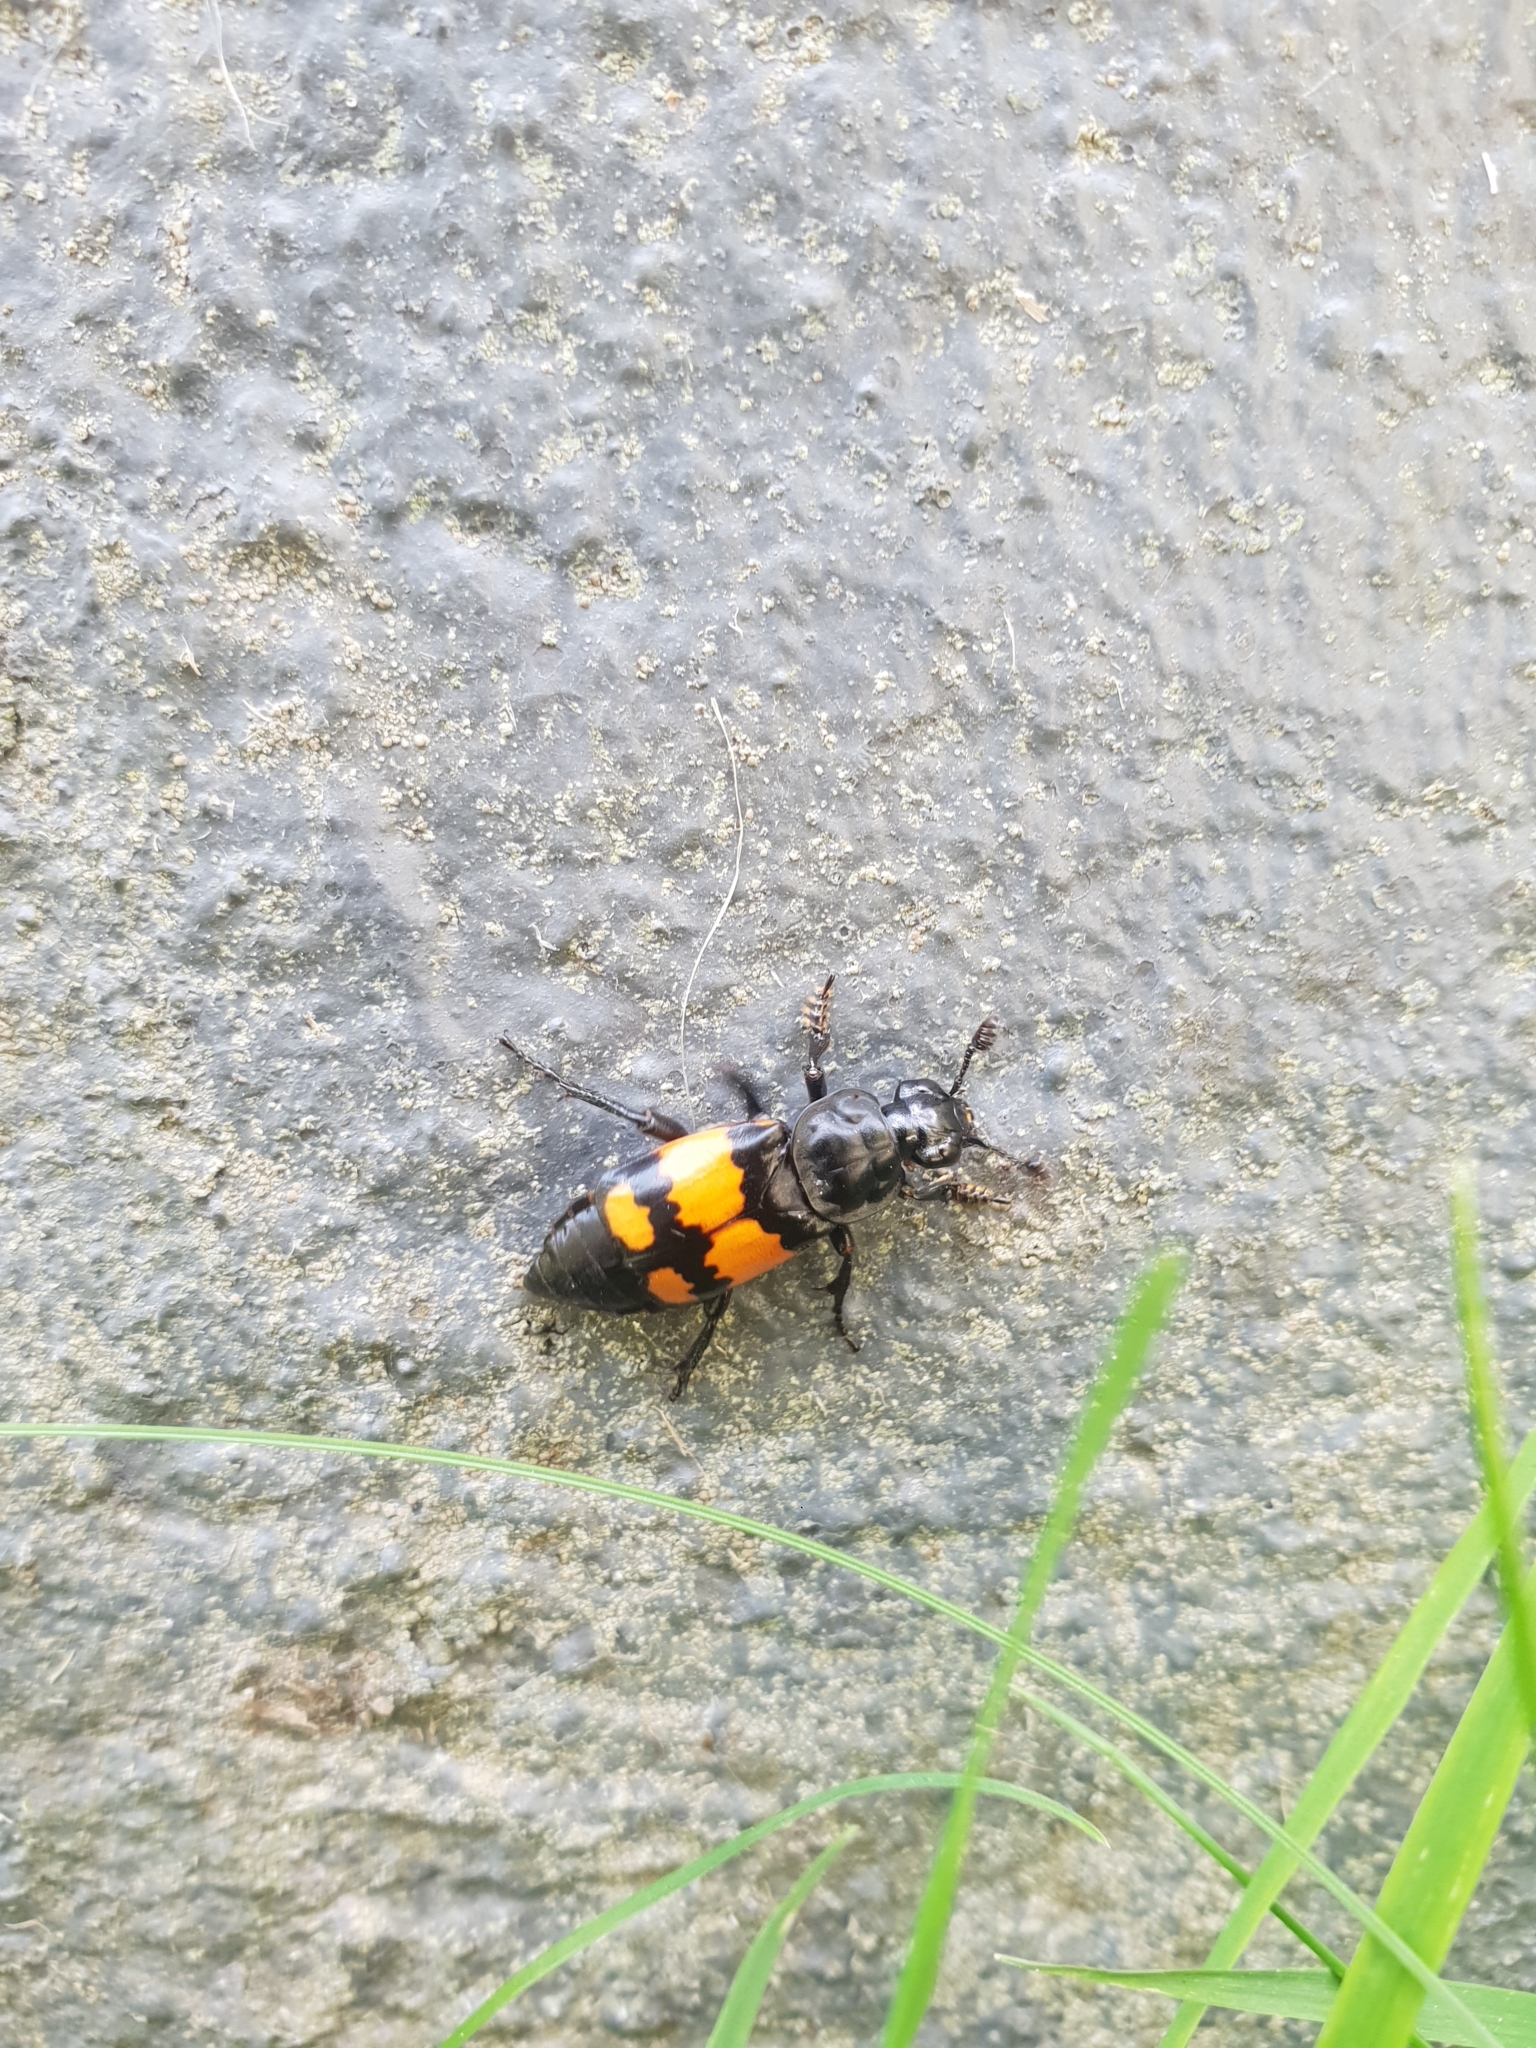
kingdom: Animalia
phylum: Arthropoda
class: Insecta
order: Coleoptera
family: Staphylinidae
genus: Nicrophorus
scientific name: Nicrophorus vespilloides
